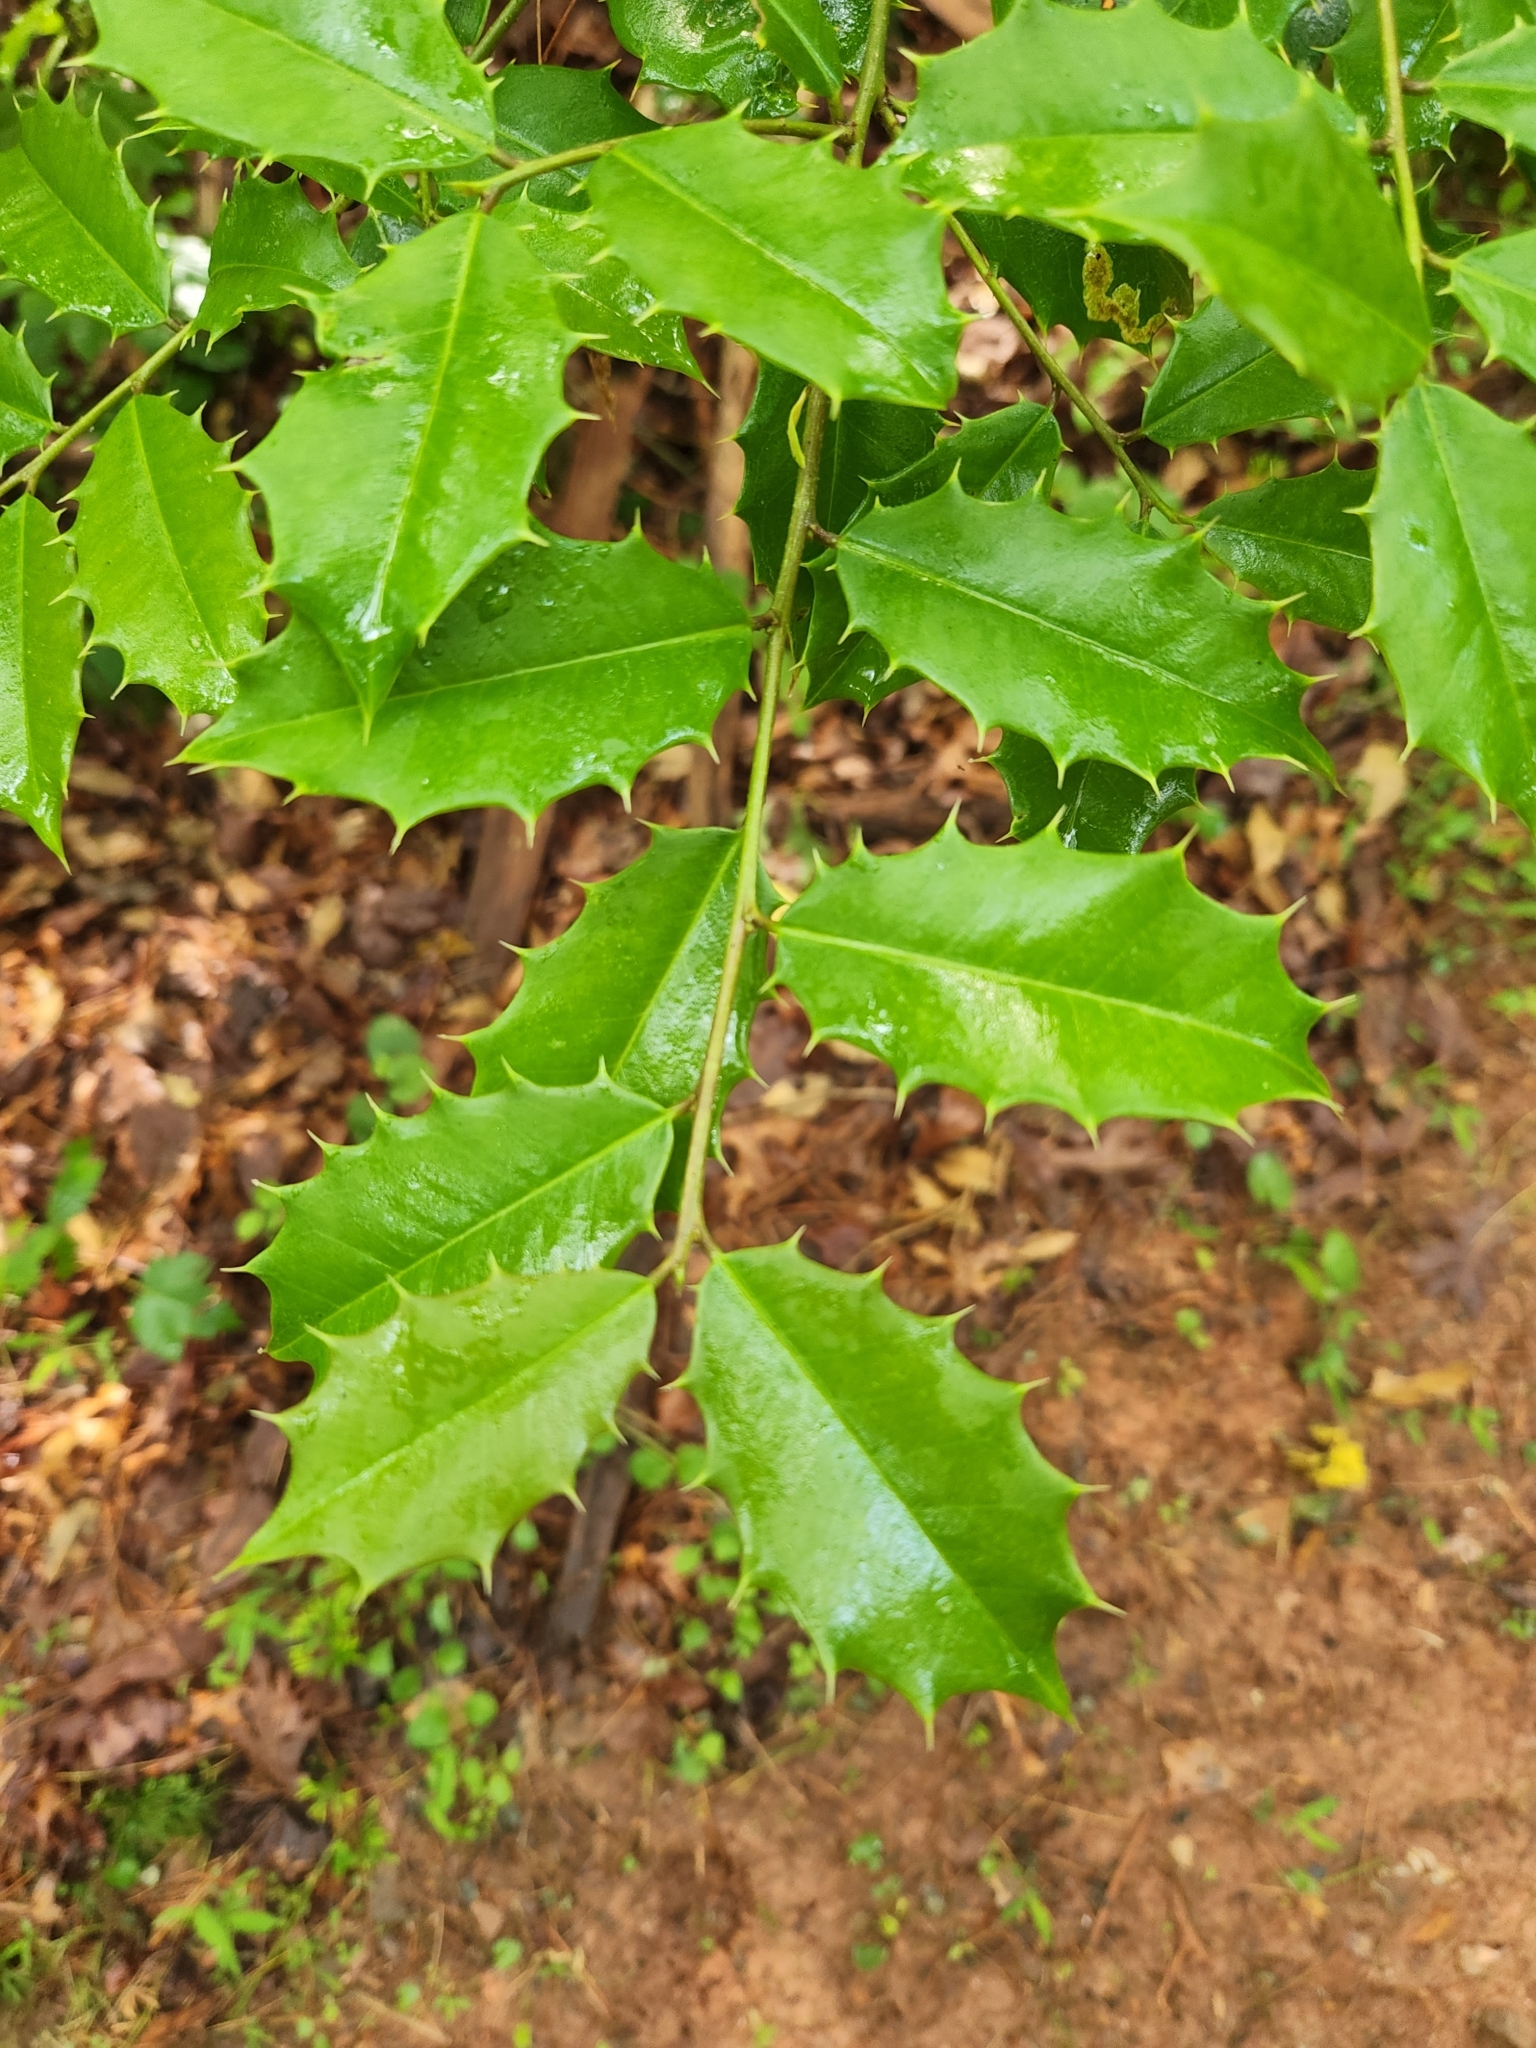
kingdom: Plantae
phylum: Tracheophyta
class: Magnoliopsida
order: Aquifoliales
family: Aquifoliaceae
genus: Ilex
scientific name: Ilex opaca
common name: American holly
